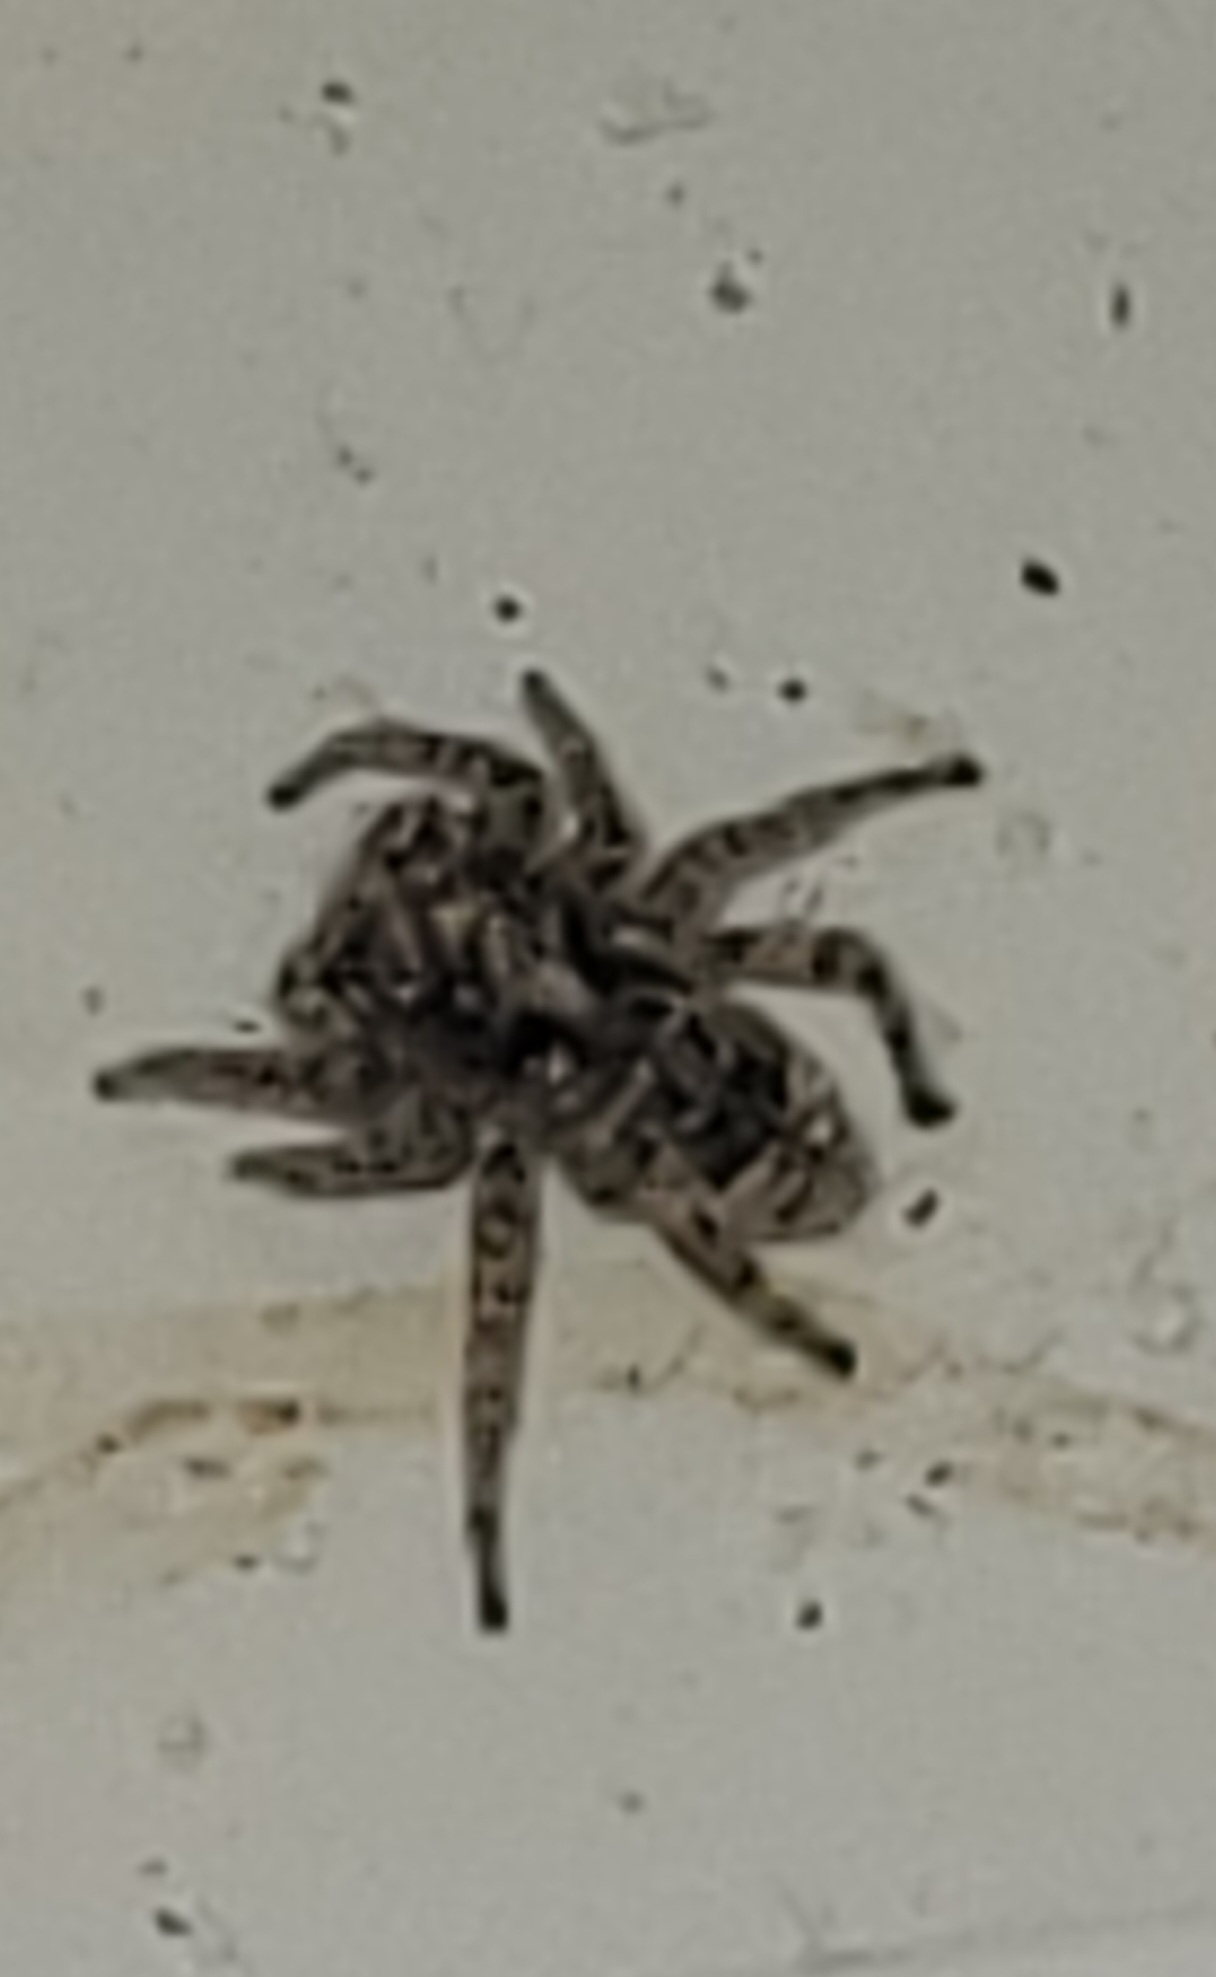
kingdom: Animalia
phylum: Arthropoda
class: Arachnida
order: Araneae
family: Salticidae
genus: Attulus
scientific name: Attulus floricola
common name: Flower jumping spider
